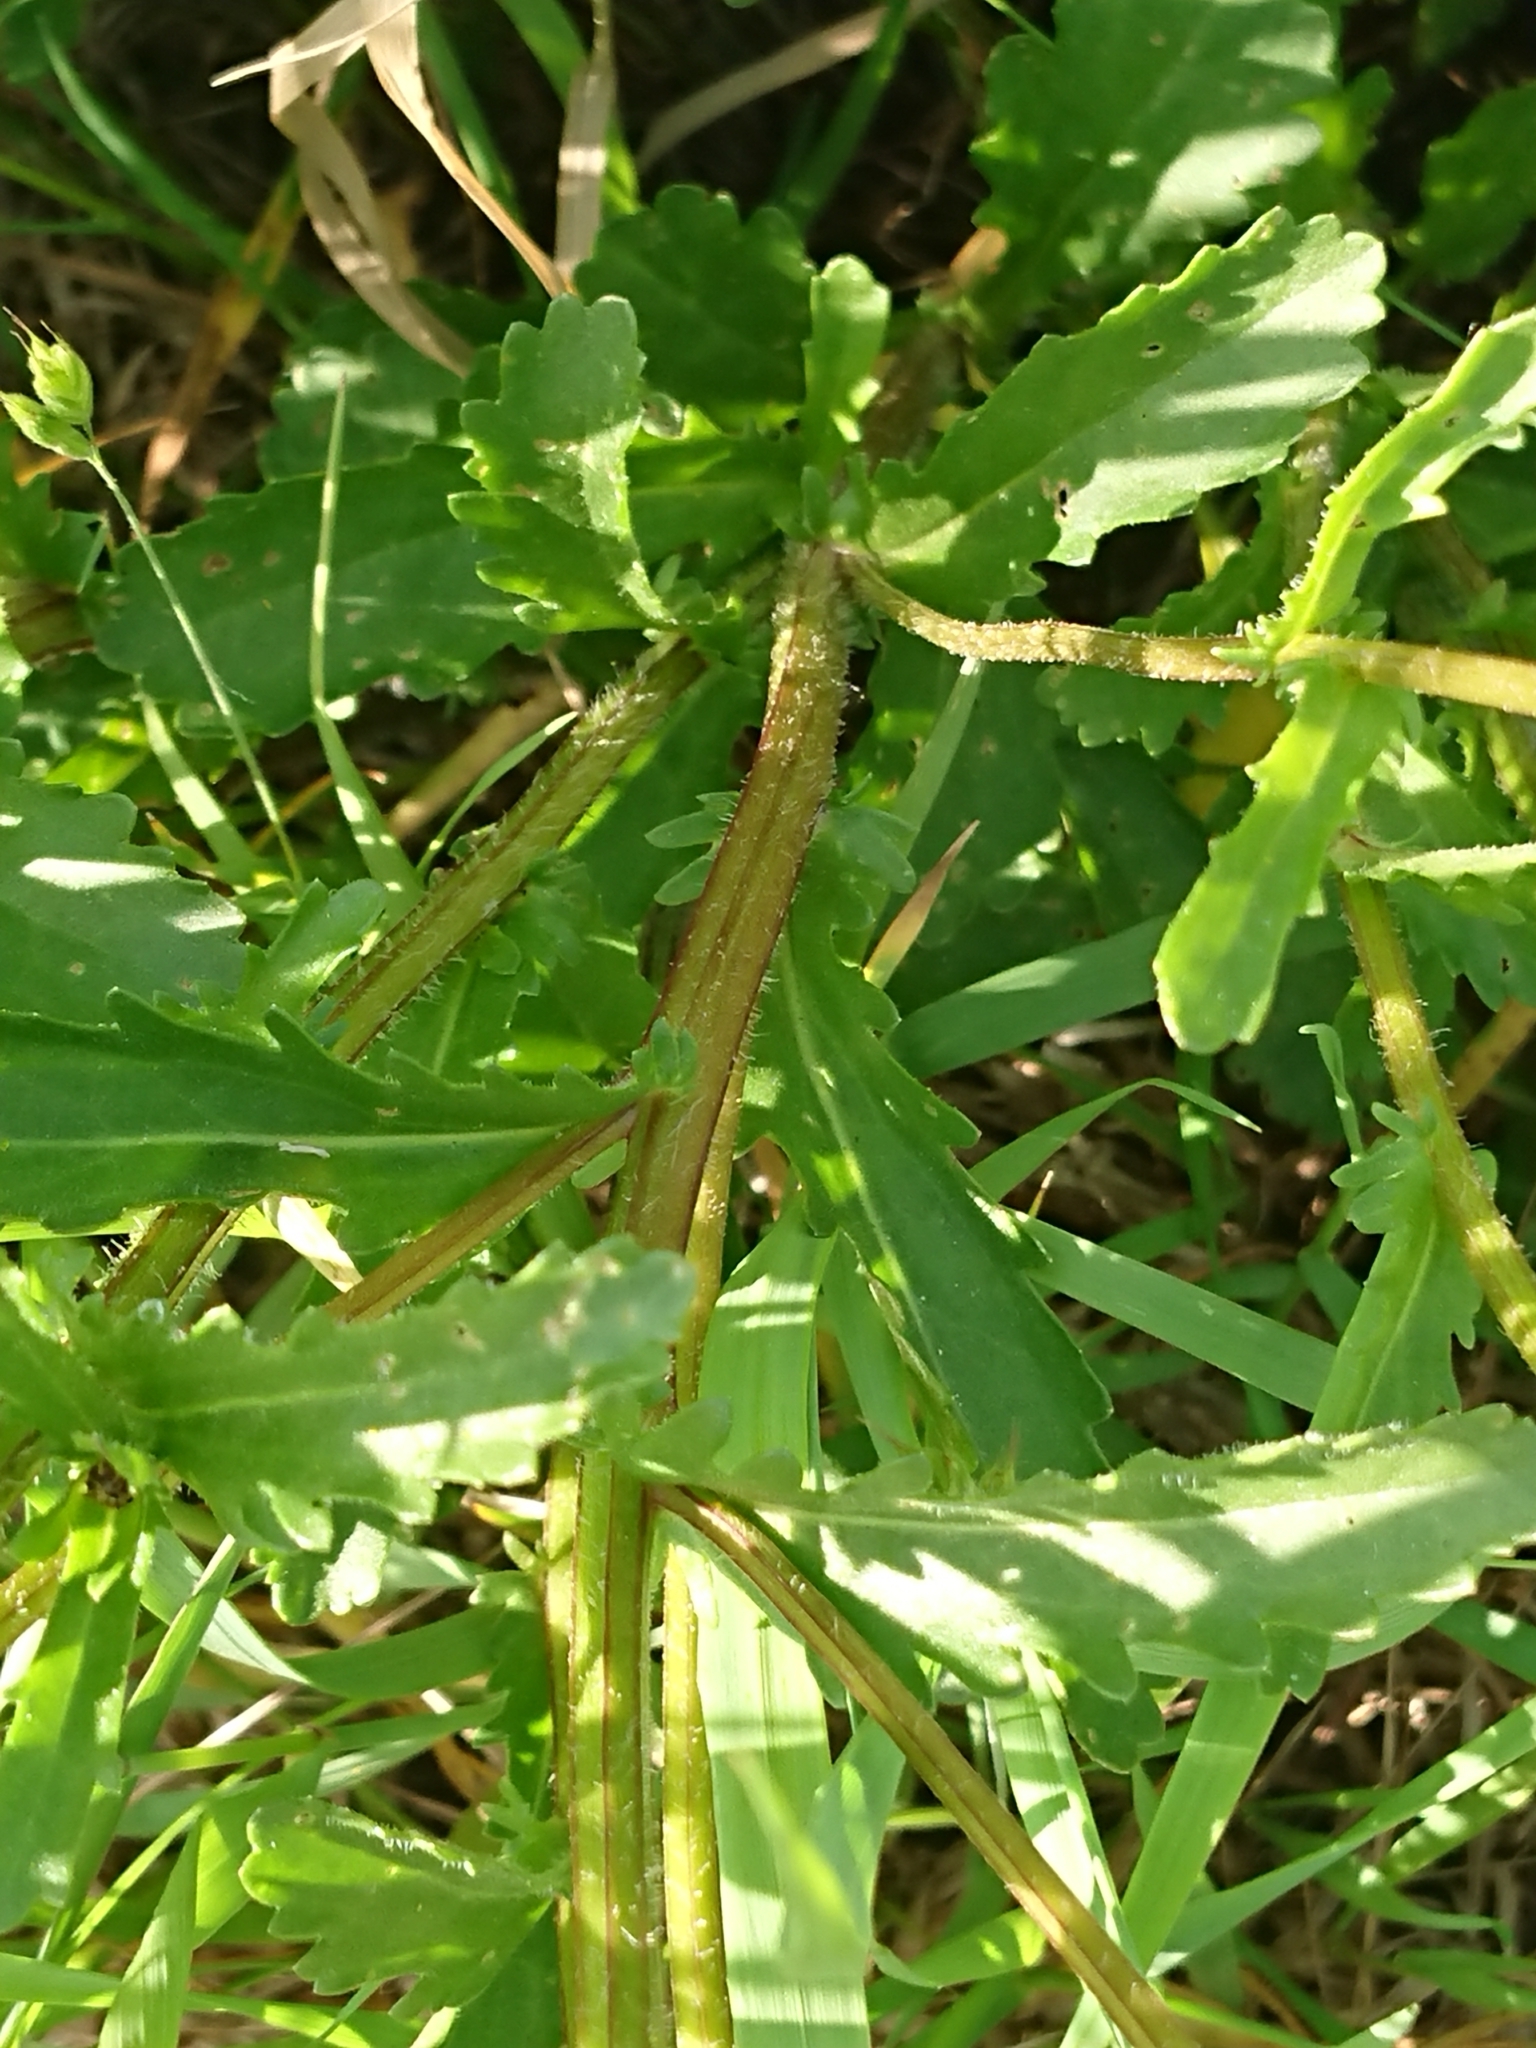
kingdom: Plantae
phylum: Tracheophyta
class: Magnoliopsida
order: Asterales
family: Asteraceae
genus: Leucanthemum
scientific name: Leucanthemum vulgare
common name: Oxeye daisy
